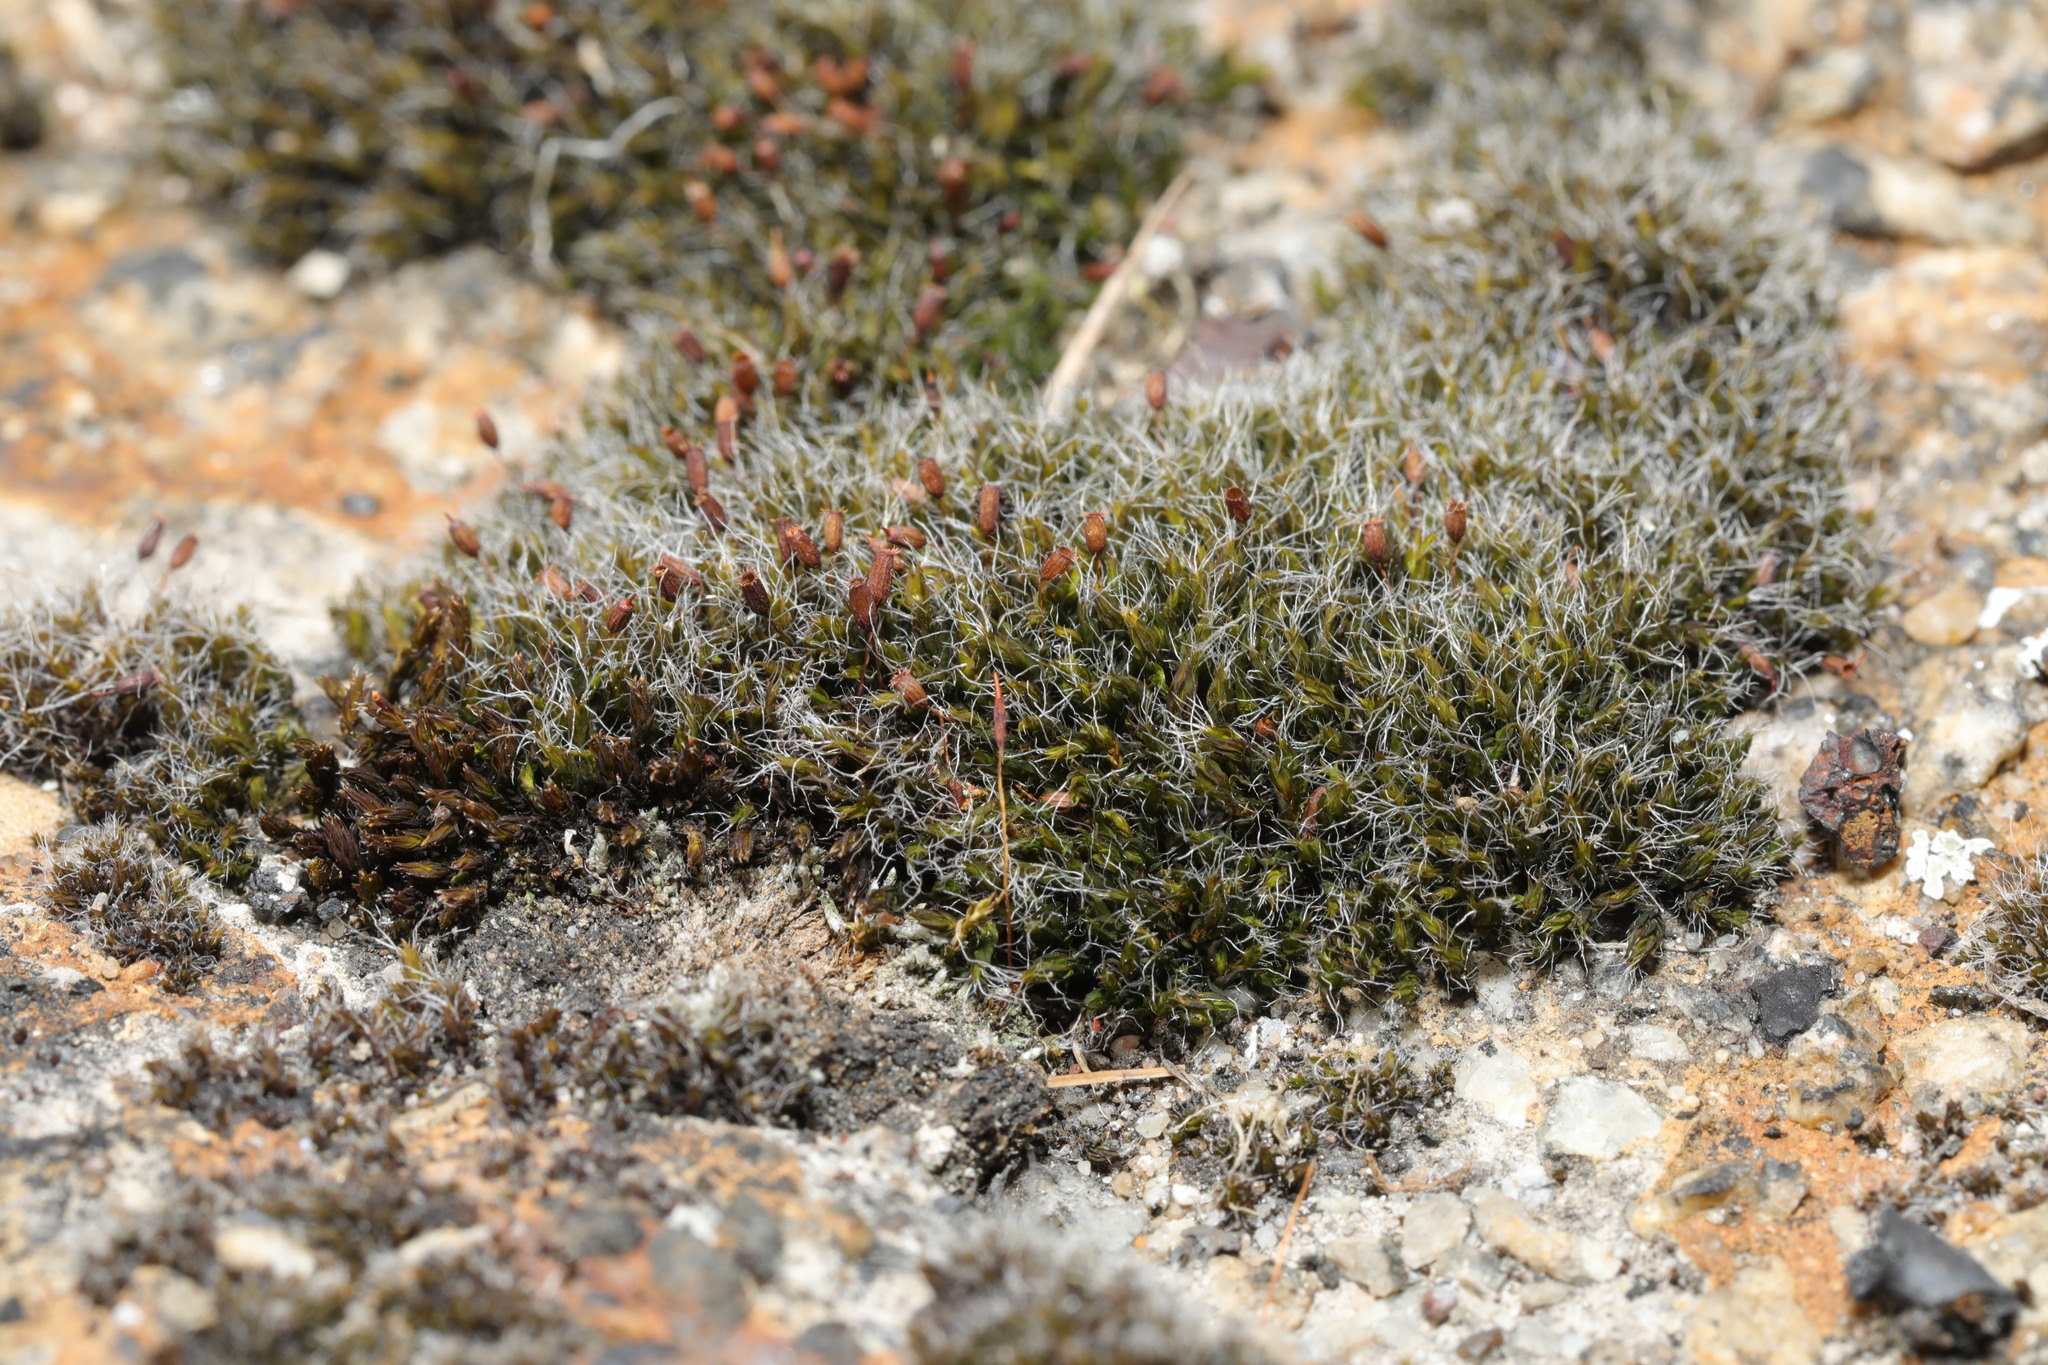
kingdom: Plantae
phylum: Bryophyta
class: Bryopsida
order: Grimmiales
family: Grimmiaceae
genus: Grimmia
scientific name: Grimmia pulvinata
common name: Grey-cushioned grimmia
